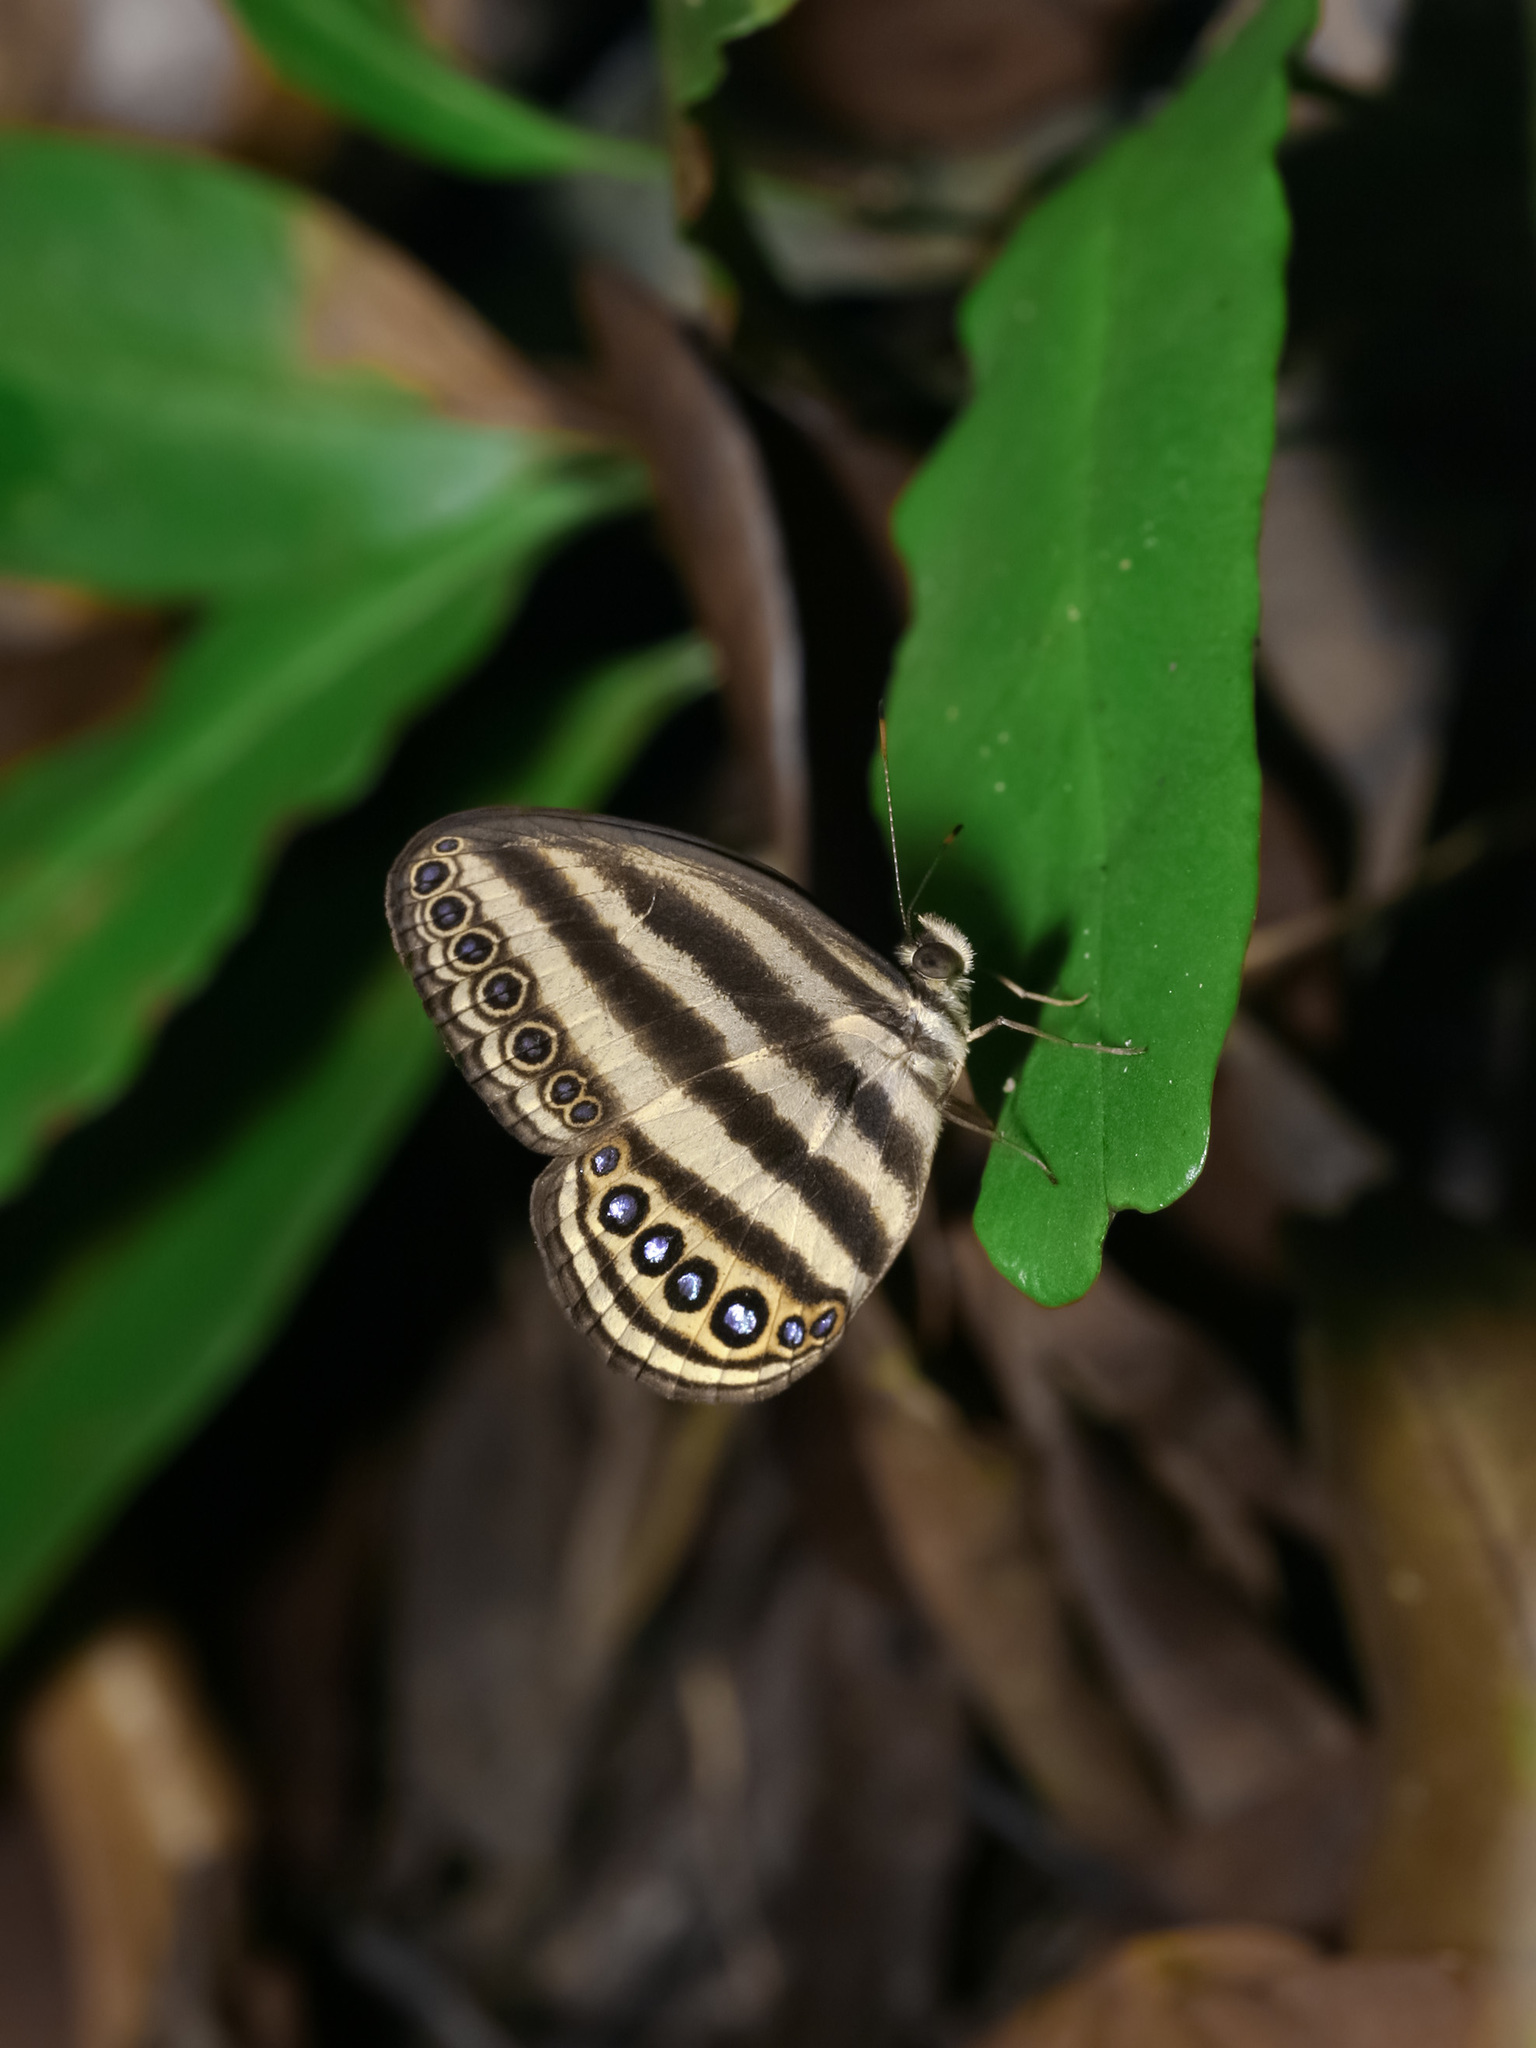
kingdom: Animalia
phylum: Arthropoda
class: Insecta
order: Lepidoptera
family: Nymphalidae
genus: Ragadia
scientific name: Ragadia makuta
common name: Striped ringlet
